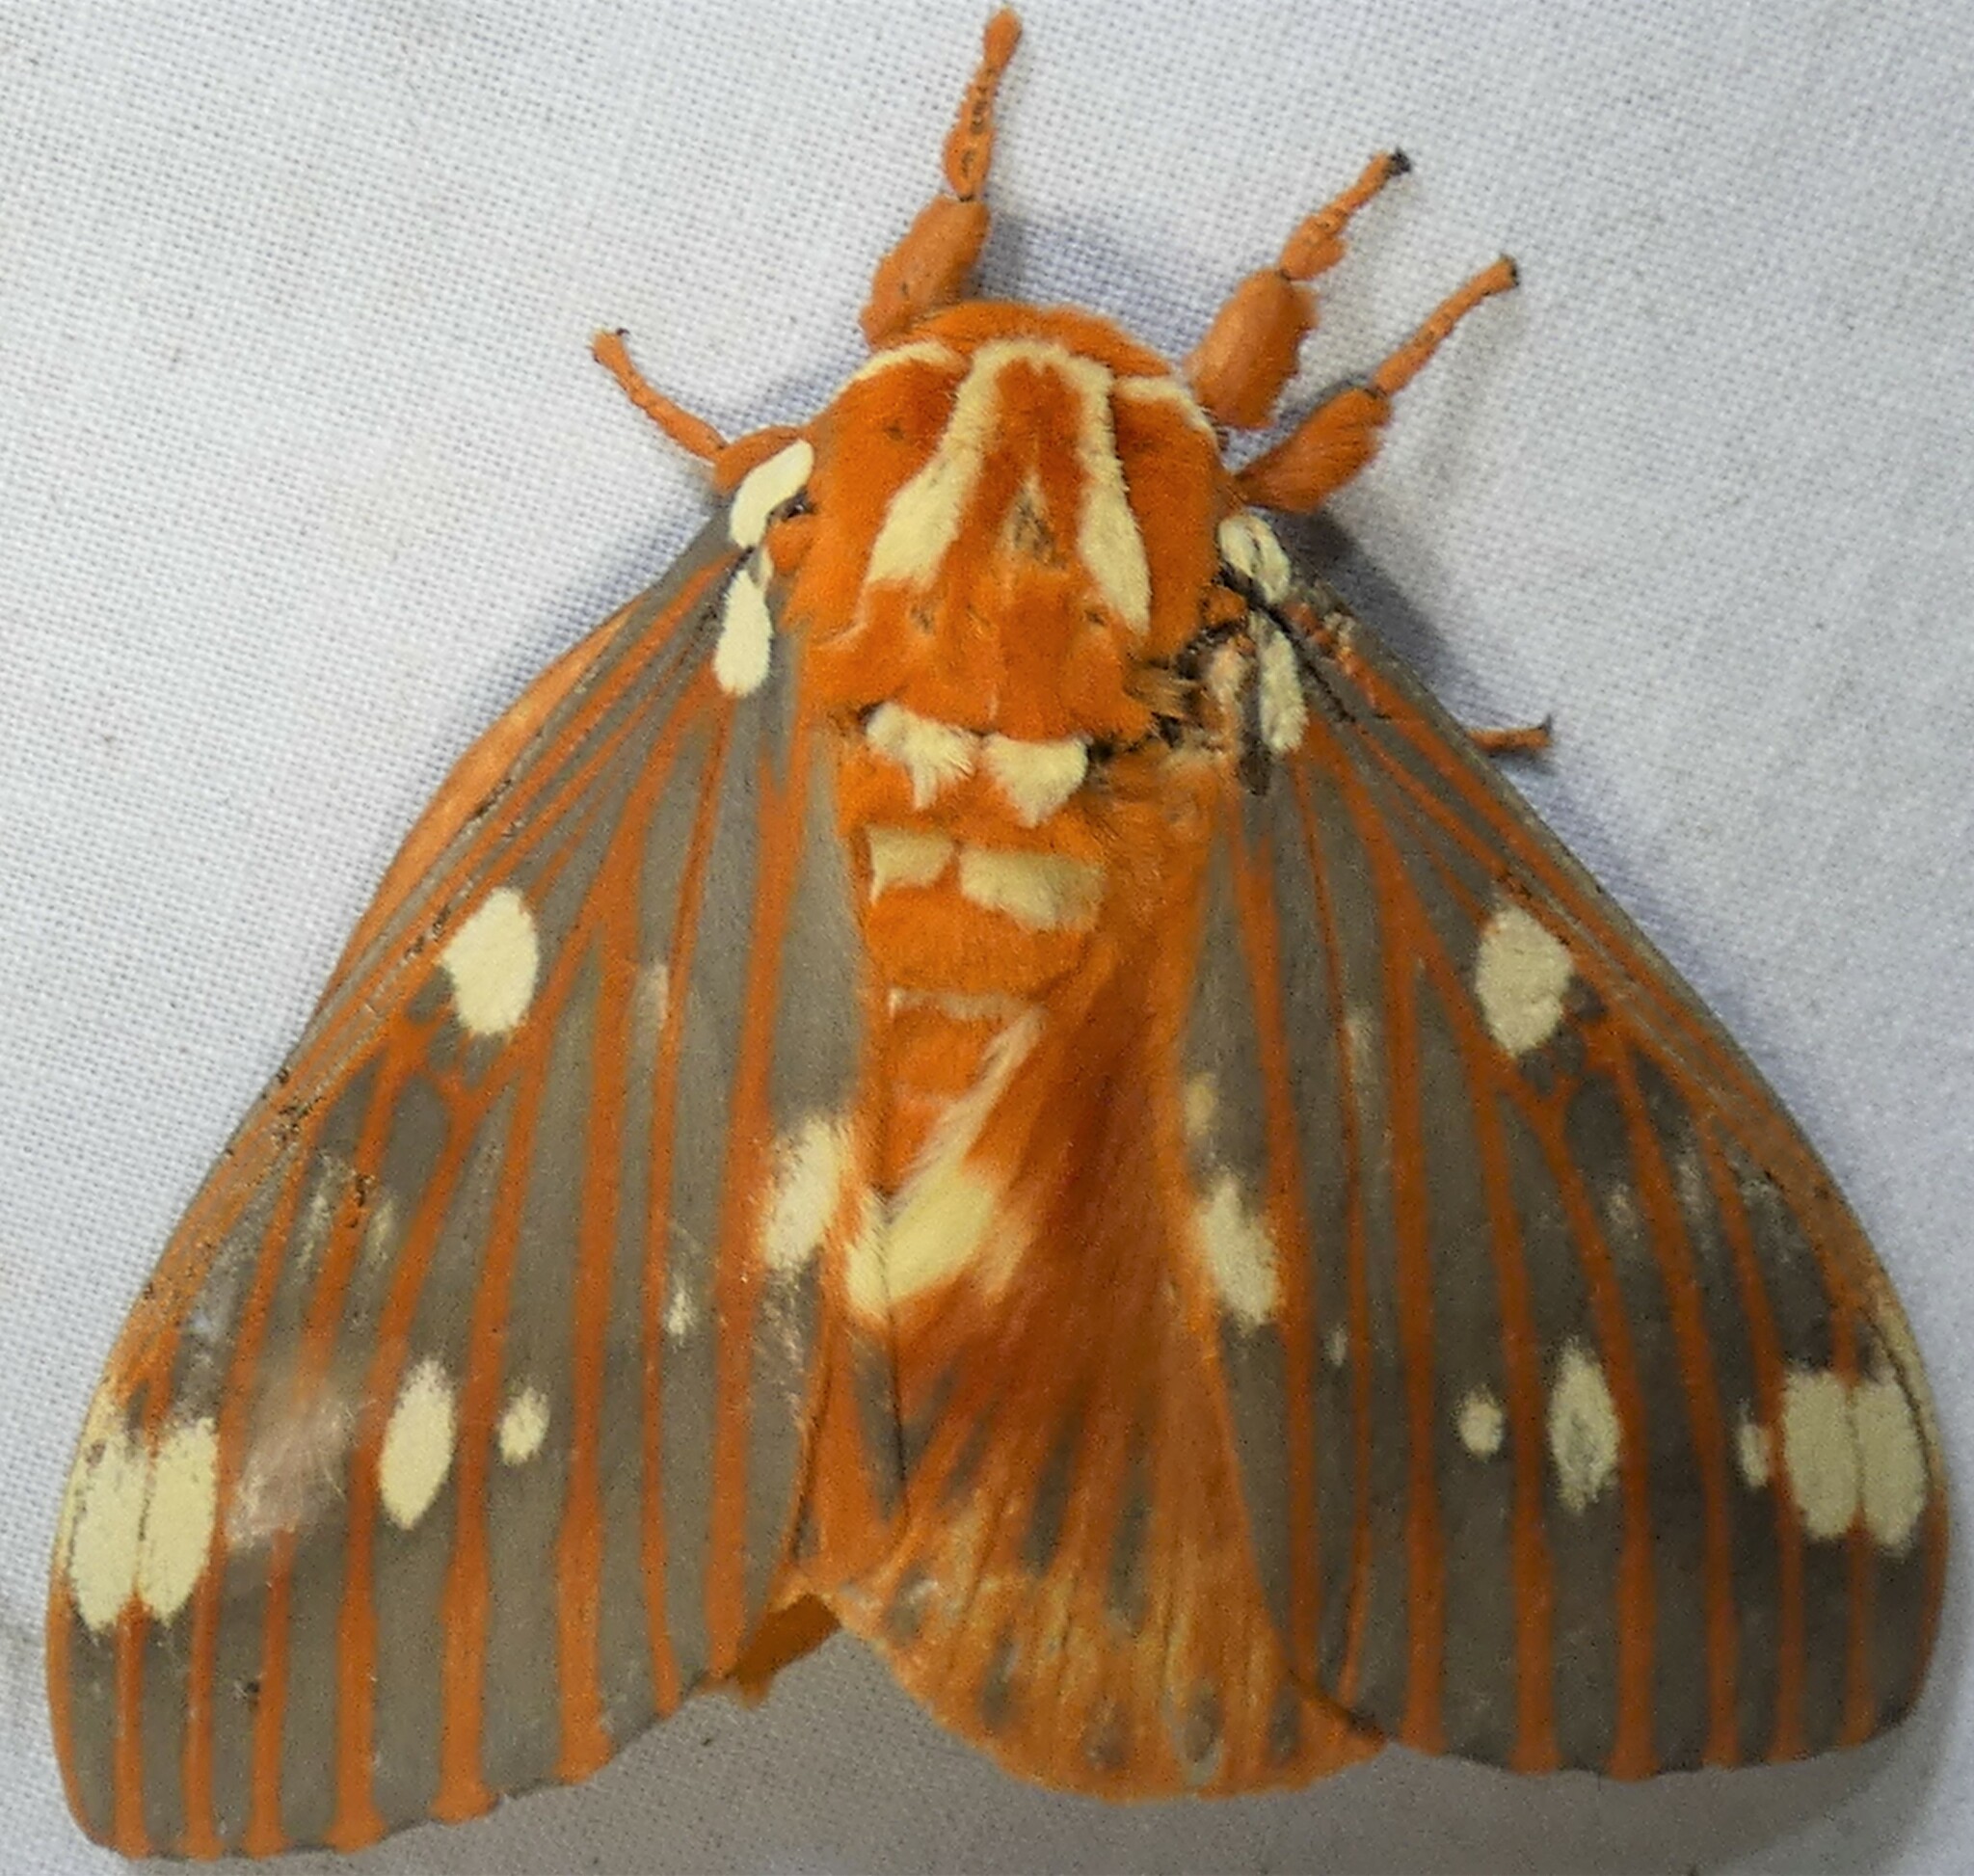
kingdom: Animalia
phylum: Arthropoda
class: Insecta
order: Lepidoptera
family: Saturniidae
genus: Citheronia
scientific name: Citheronia regalis
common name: Hickory horned devil
